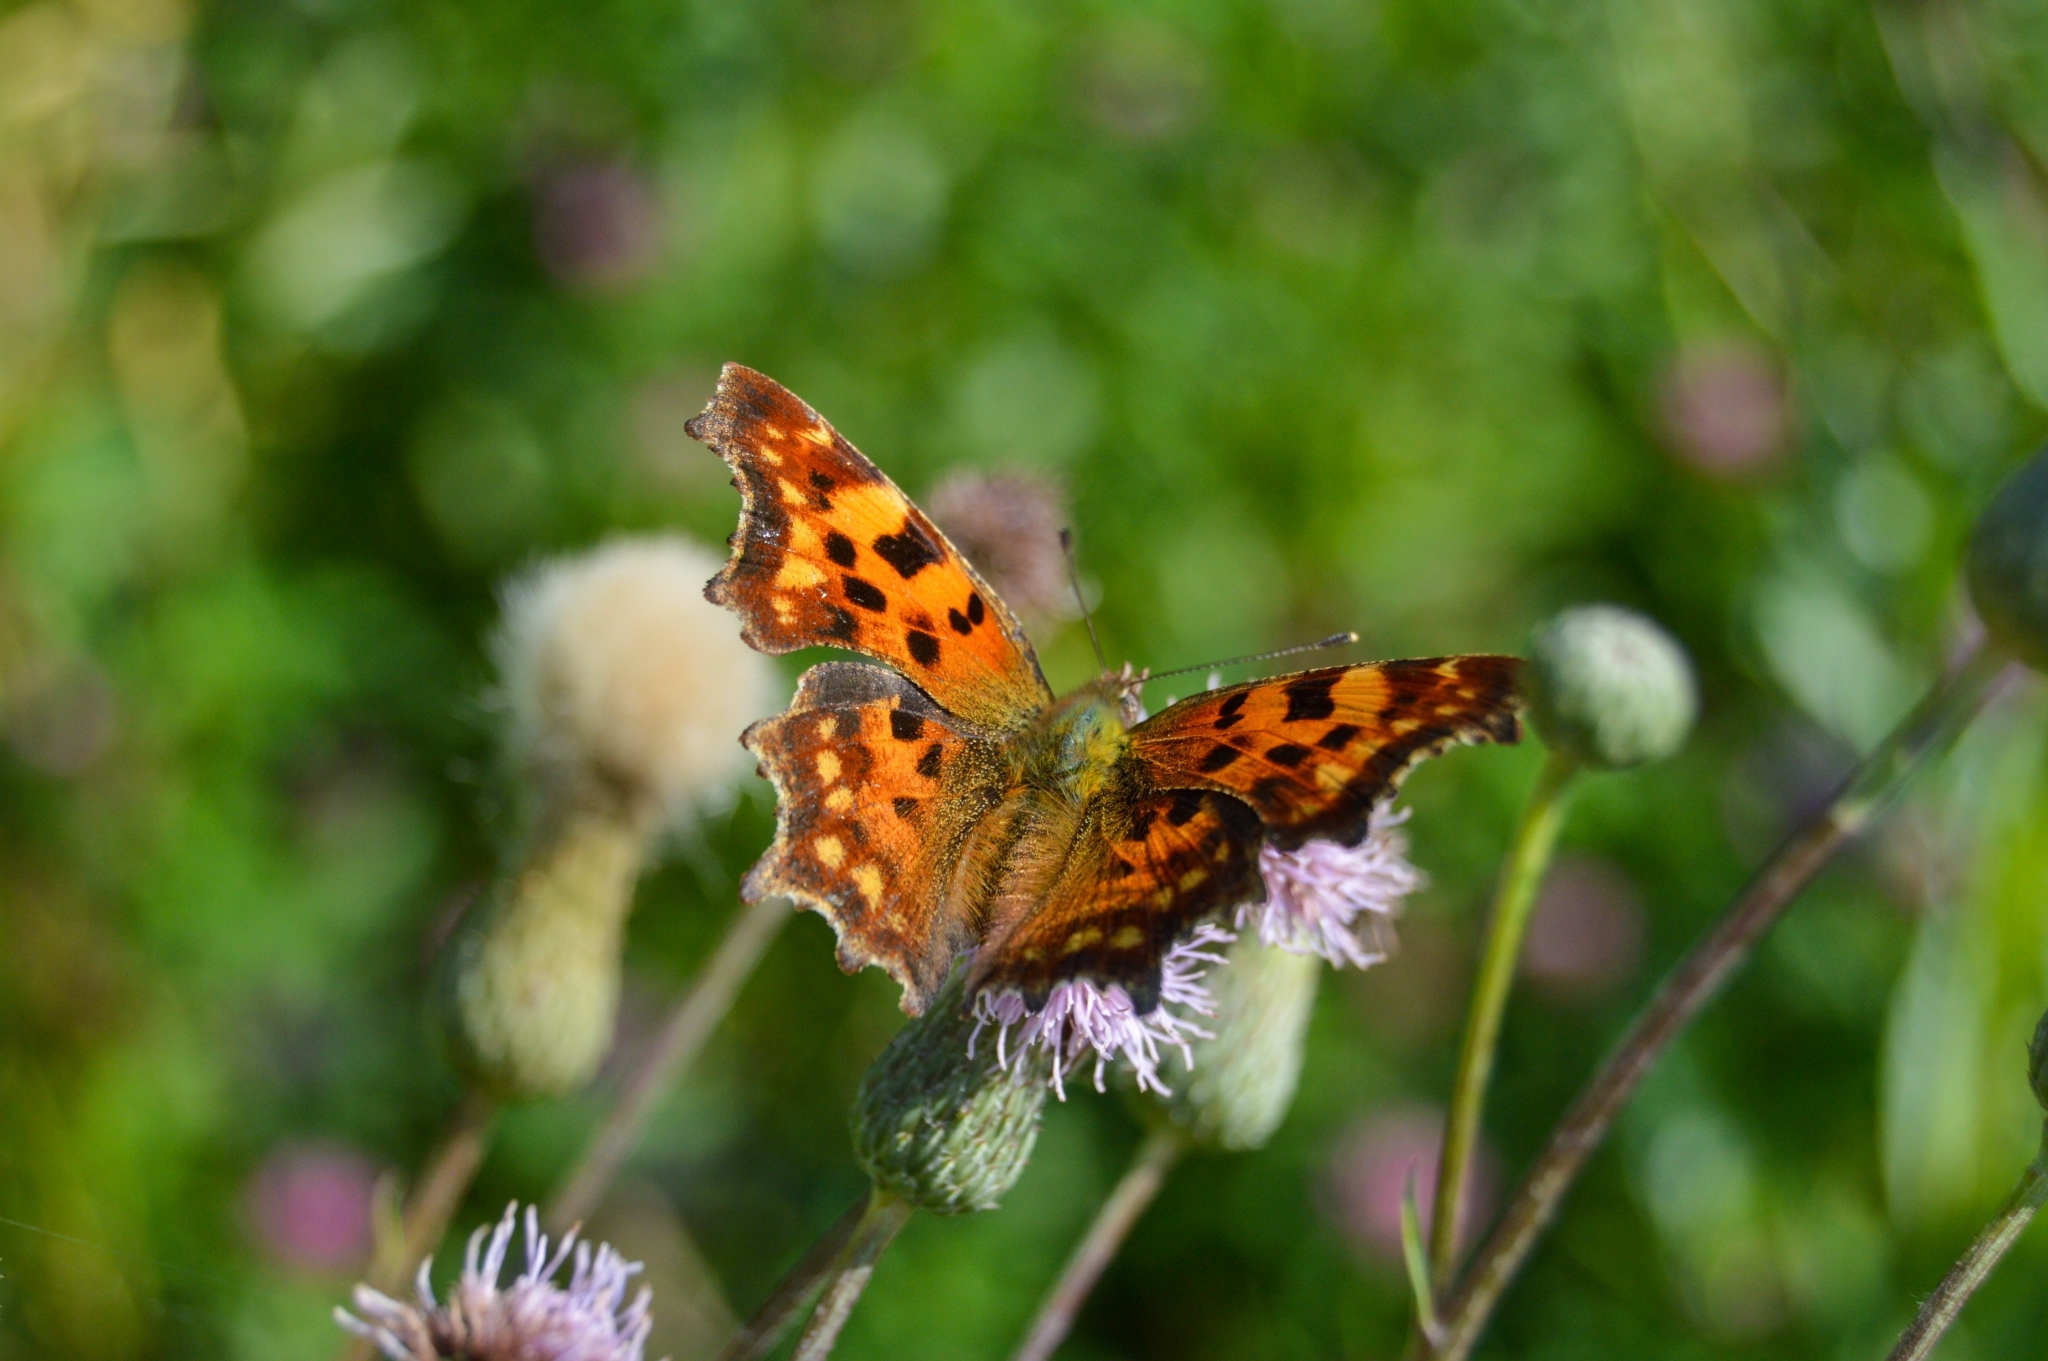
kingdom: Animalia
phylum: Arthropoda
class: Insecta
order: Lepidoptera
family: Nymphalidae
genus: Polygonia
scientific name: Polygonia c-album
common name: Comma
